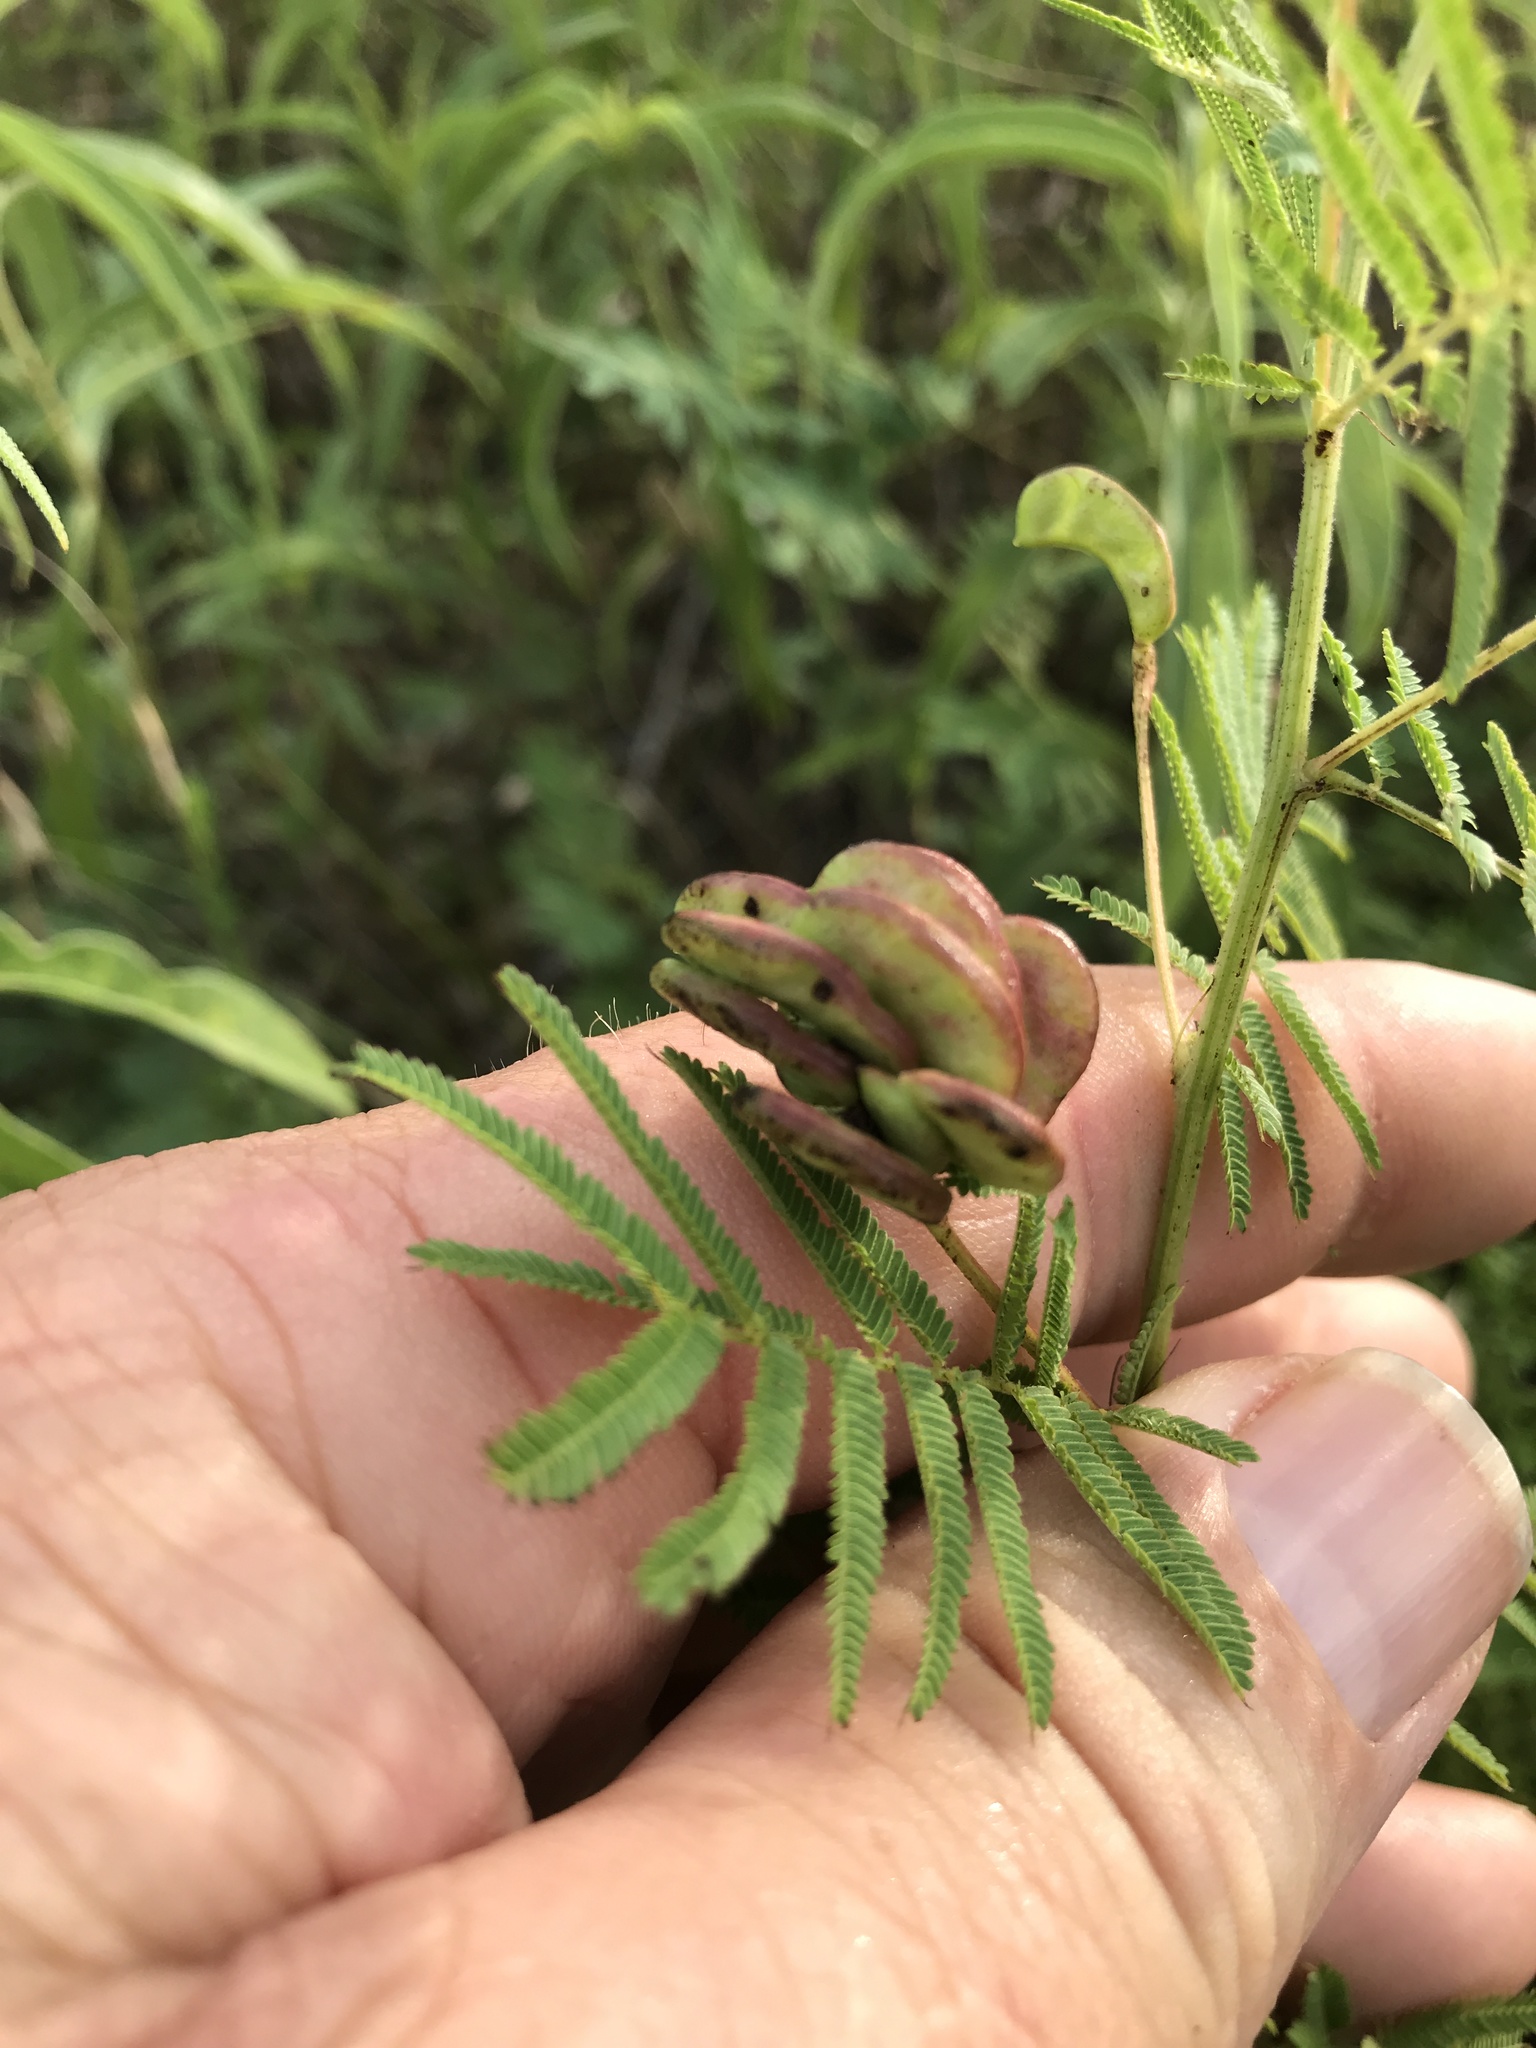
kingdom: Plantae
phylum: Tracheophyta
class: Magnoliopsida
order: Fabales
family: Fabaceae
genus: Desmanthus
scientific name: Desmanthus illinoensis
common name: Illinois bundle-flower
